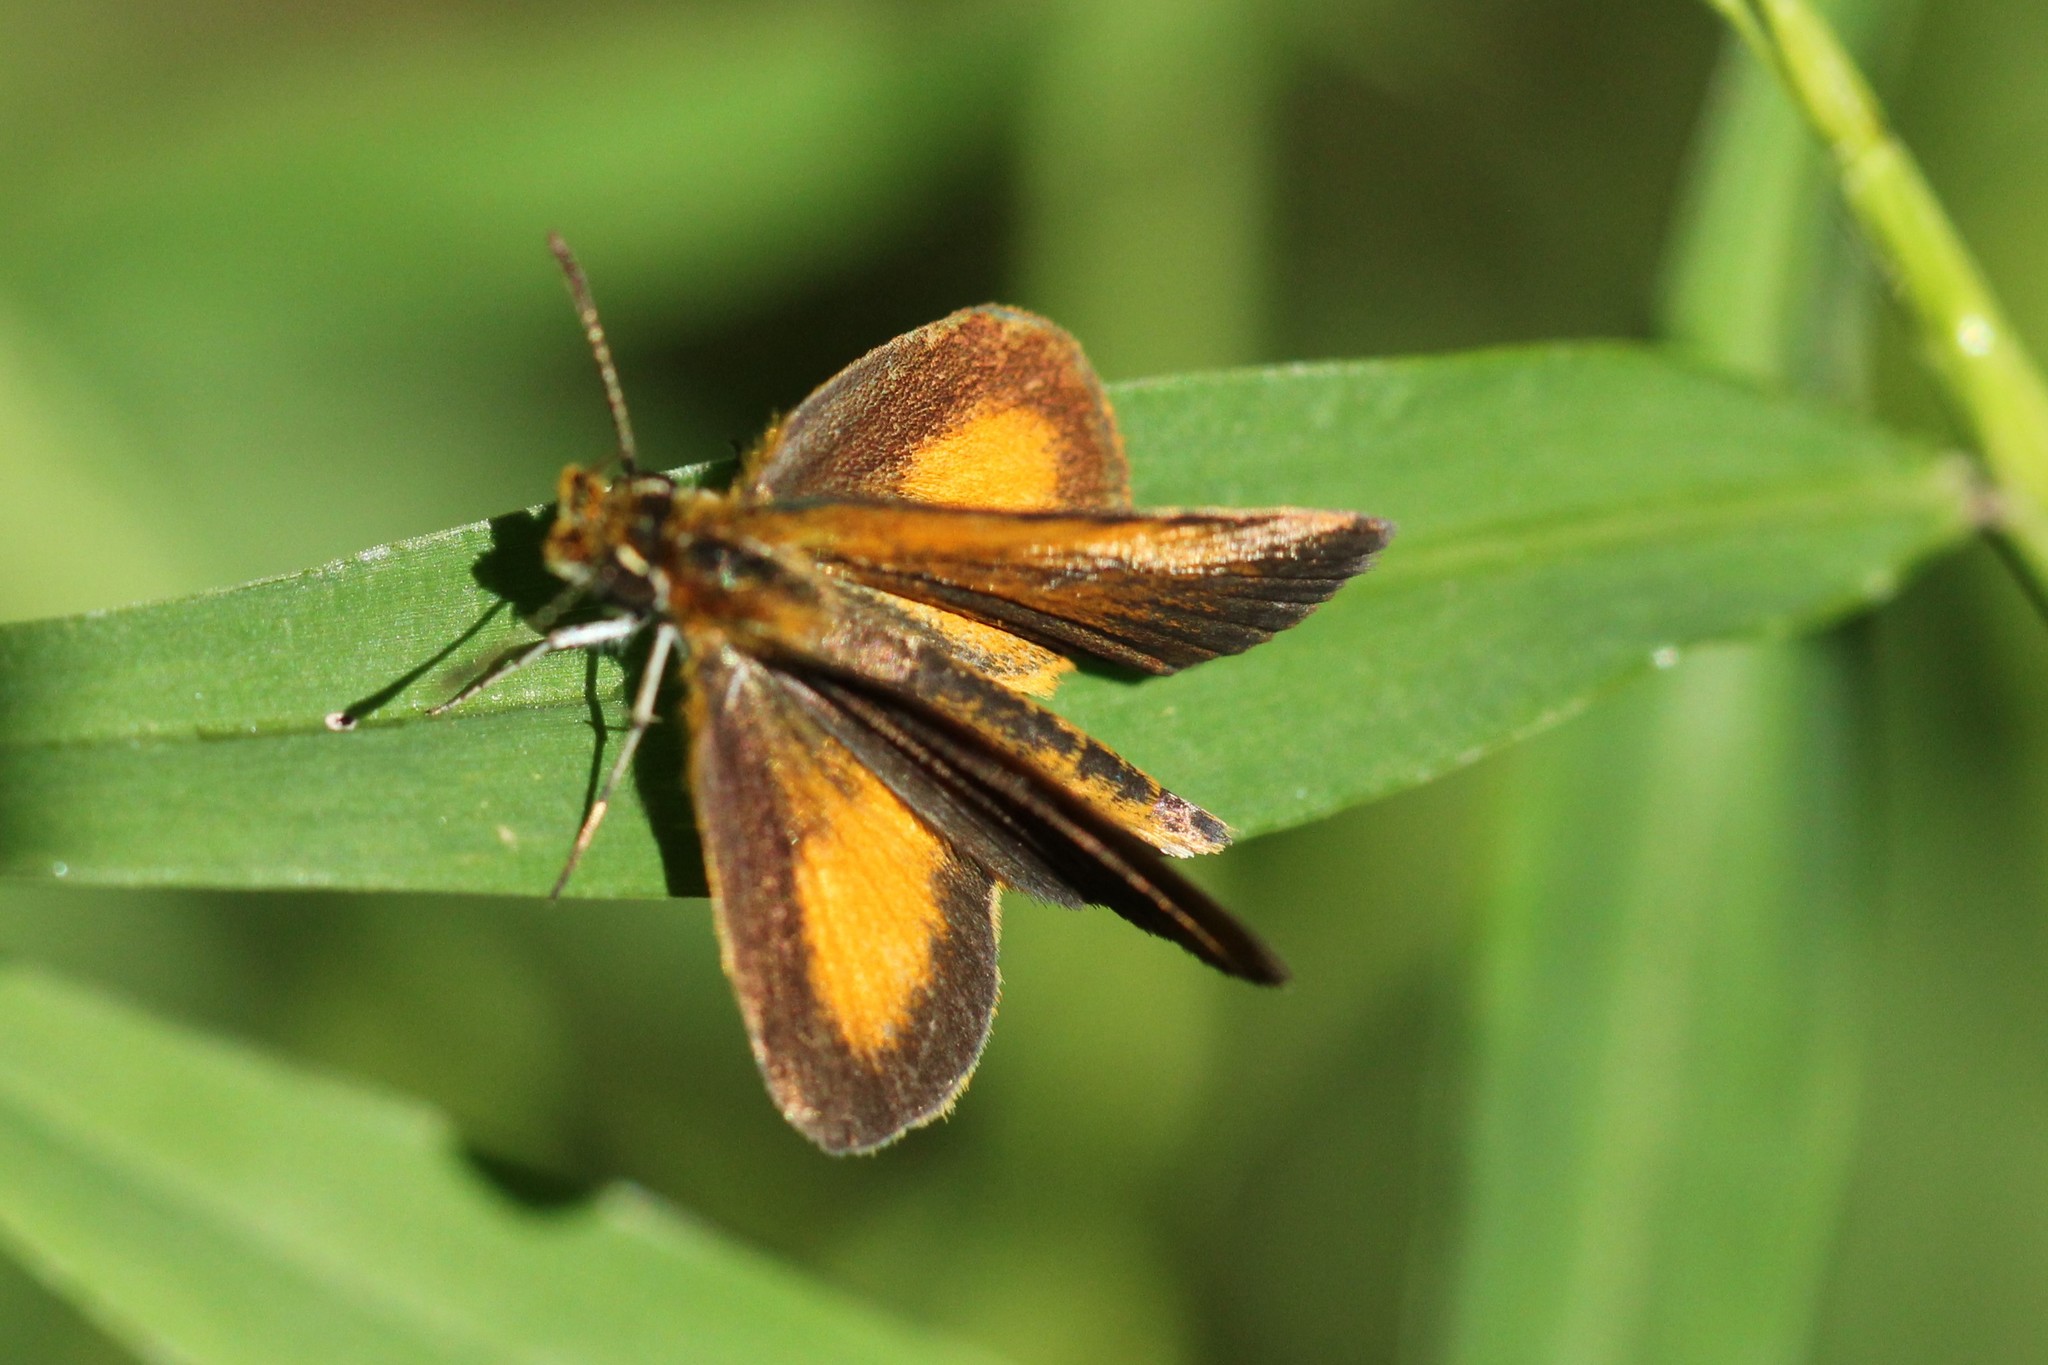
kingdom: Animalia
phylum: Arthropoda
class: Insecta
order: Lepidoptera
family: Hesperiidae
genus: Ancyloxypha
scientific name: Ancyloxypha numitor
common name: Least skipper
